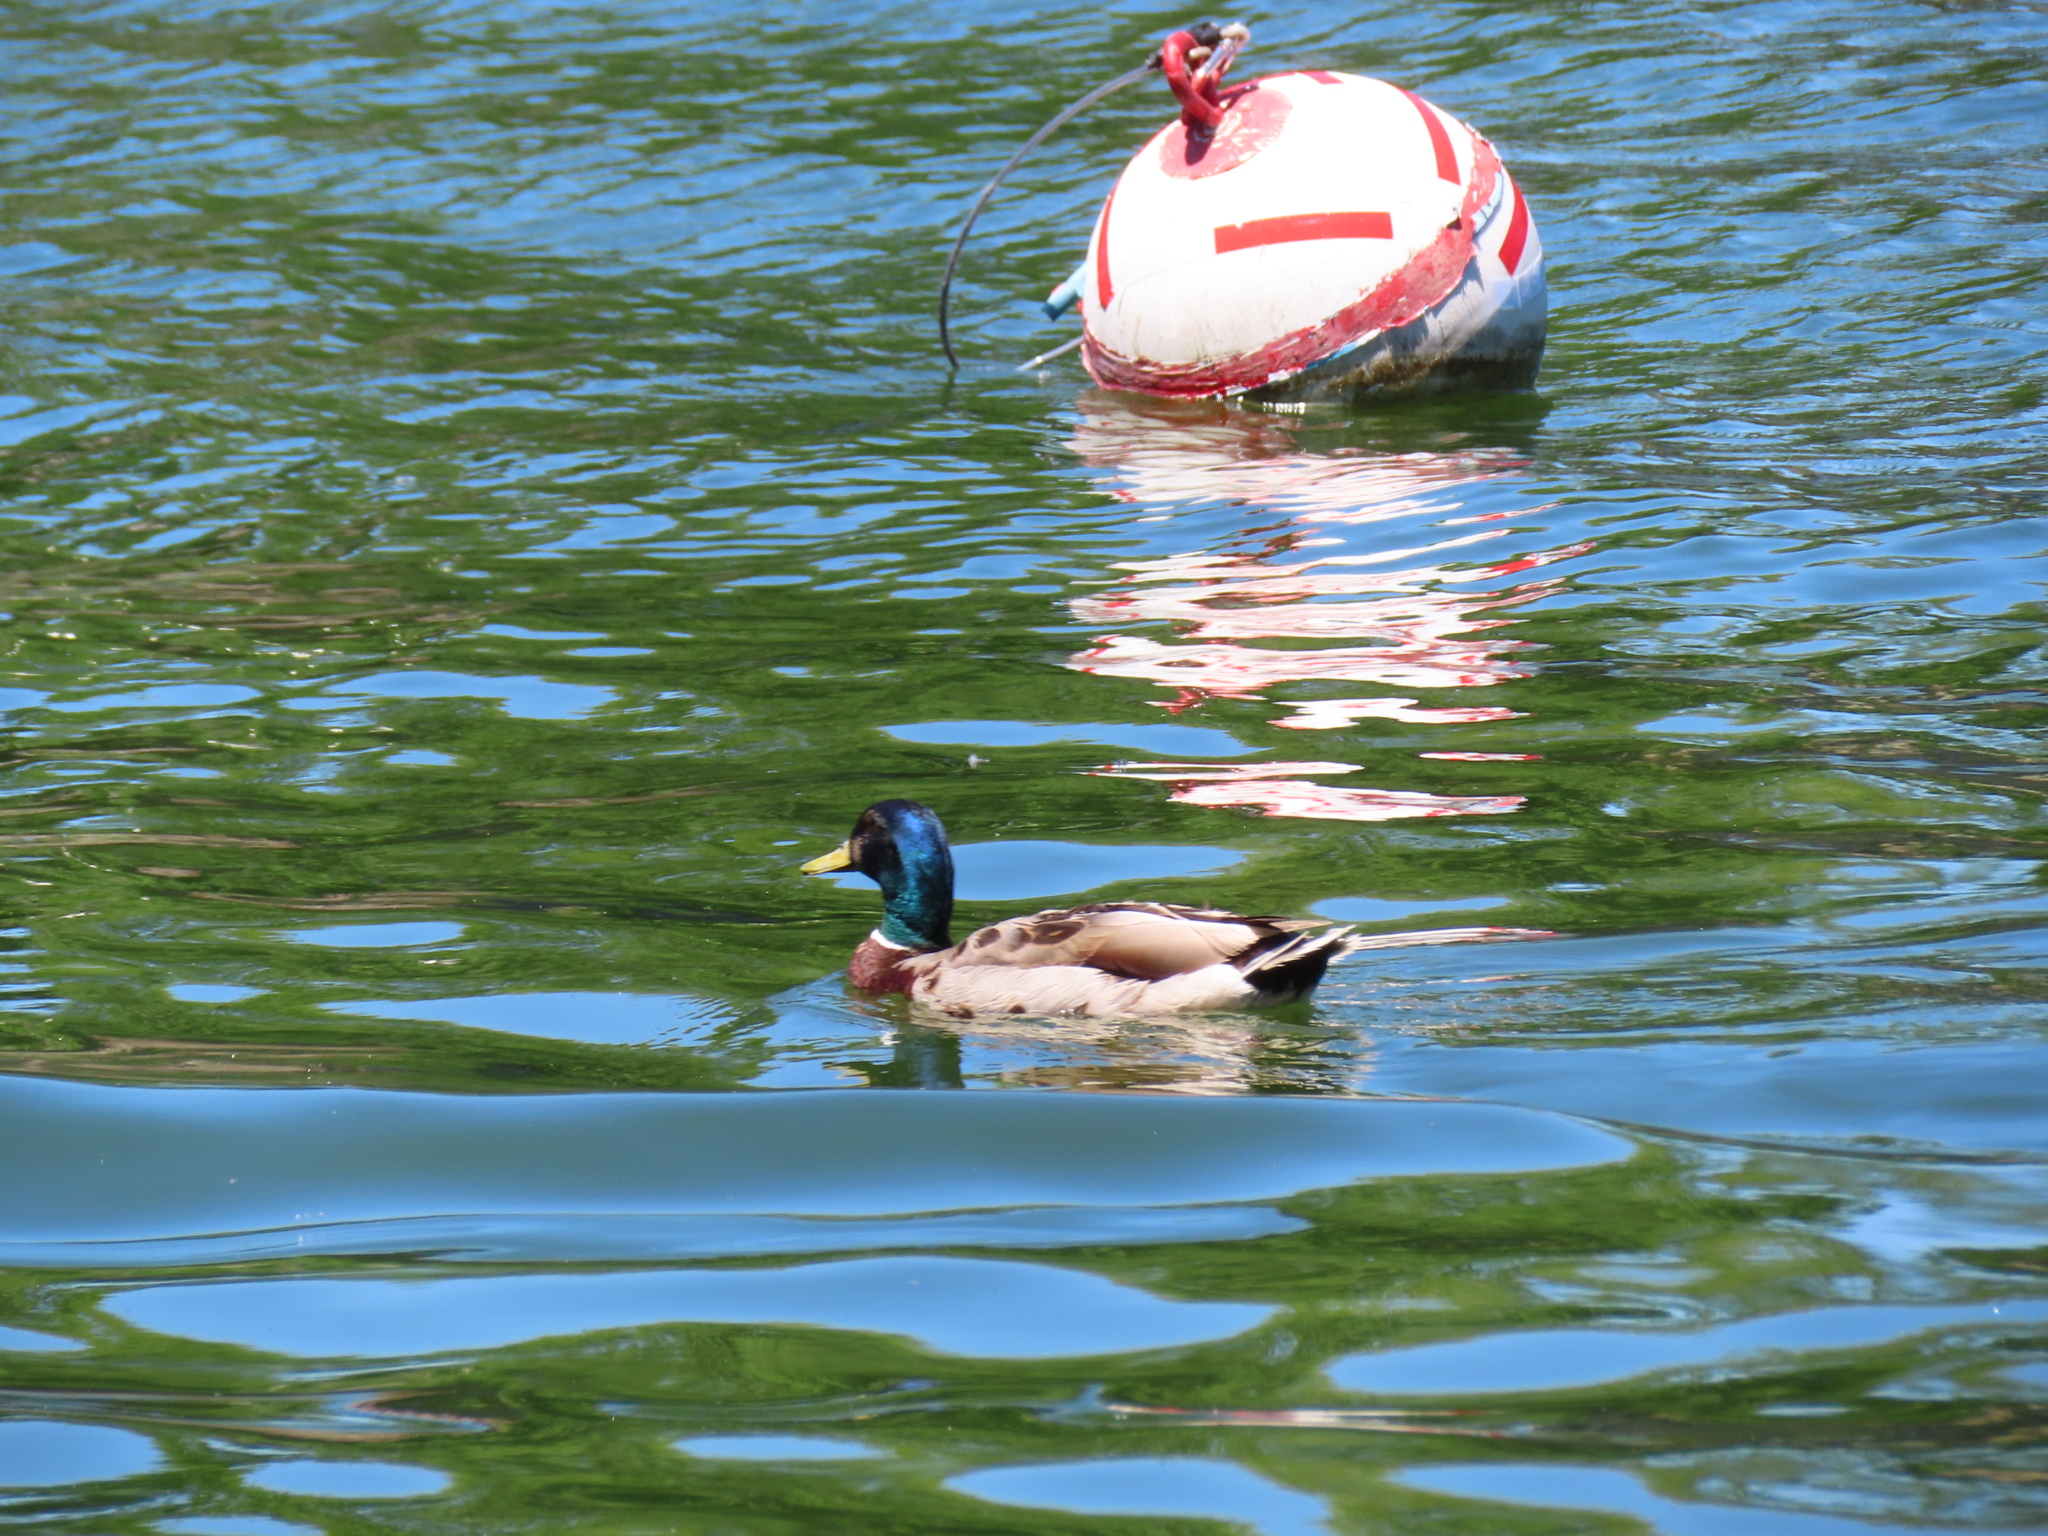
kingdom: Animalia
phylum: Chordata
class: Aves
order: Anseriformes
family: Anatidae
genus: Anas
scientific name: Anas platyrhynchos
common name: Mallard
